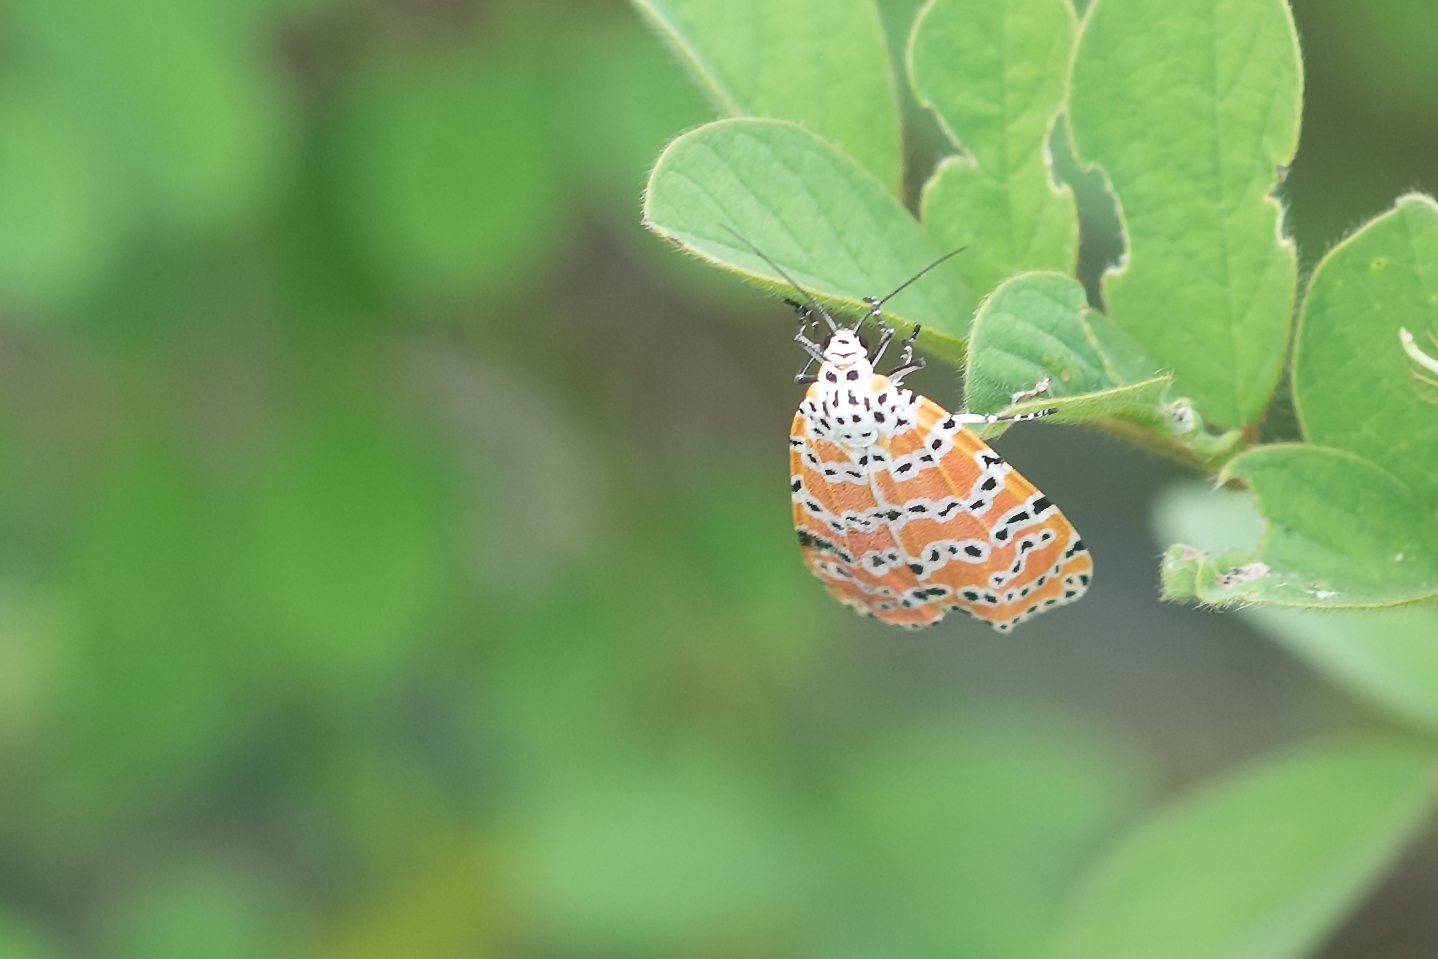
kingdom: Animalia
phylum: Arthropoda
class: Insecta
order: Lepidoptera
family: Erebidae
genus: Utetheisa
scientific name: Utetheisa ornatrix
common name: Beautiful utetheisa
